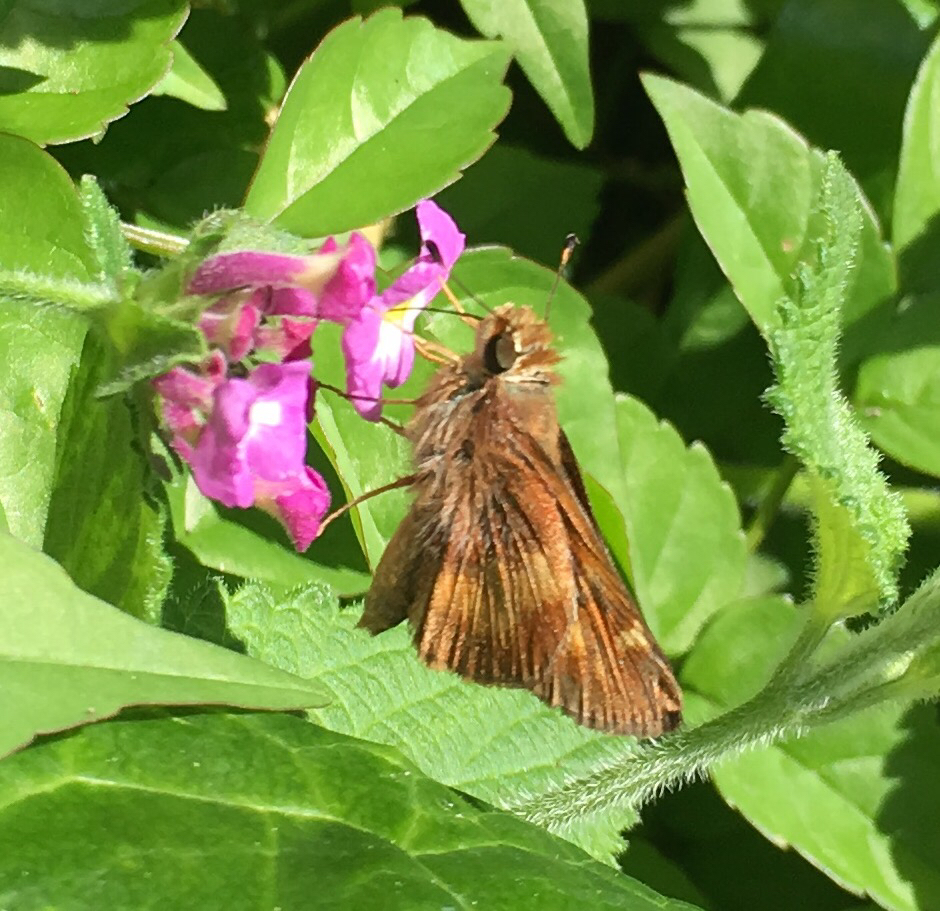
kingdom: Animalia
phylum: Arthropoda
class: Insecta
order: Lepidoptera
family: Hesperiidae
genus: Lon
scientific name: Lon melane
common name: Umber skipper
